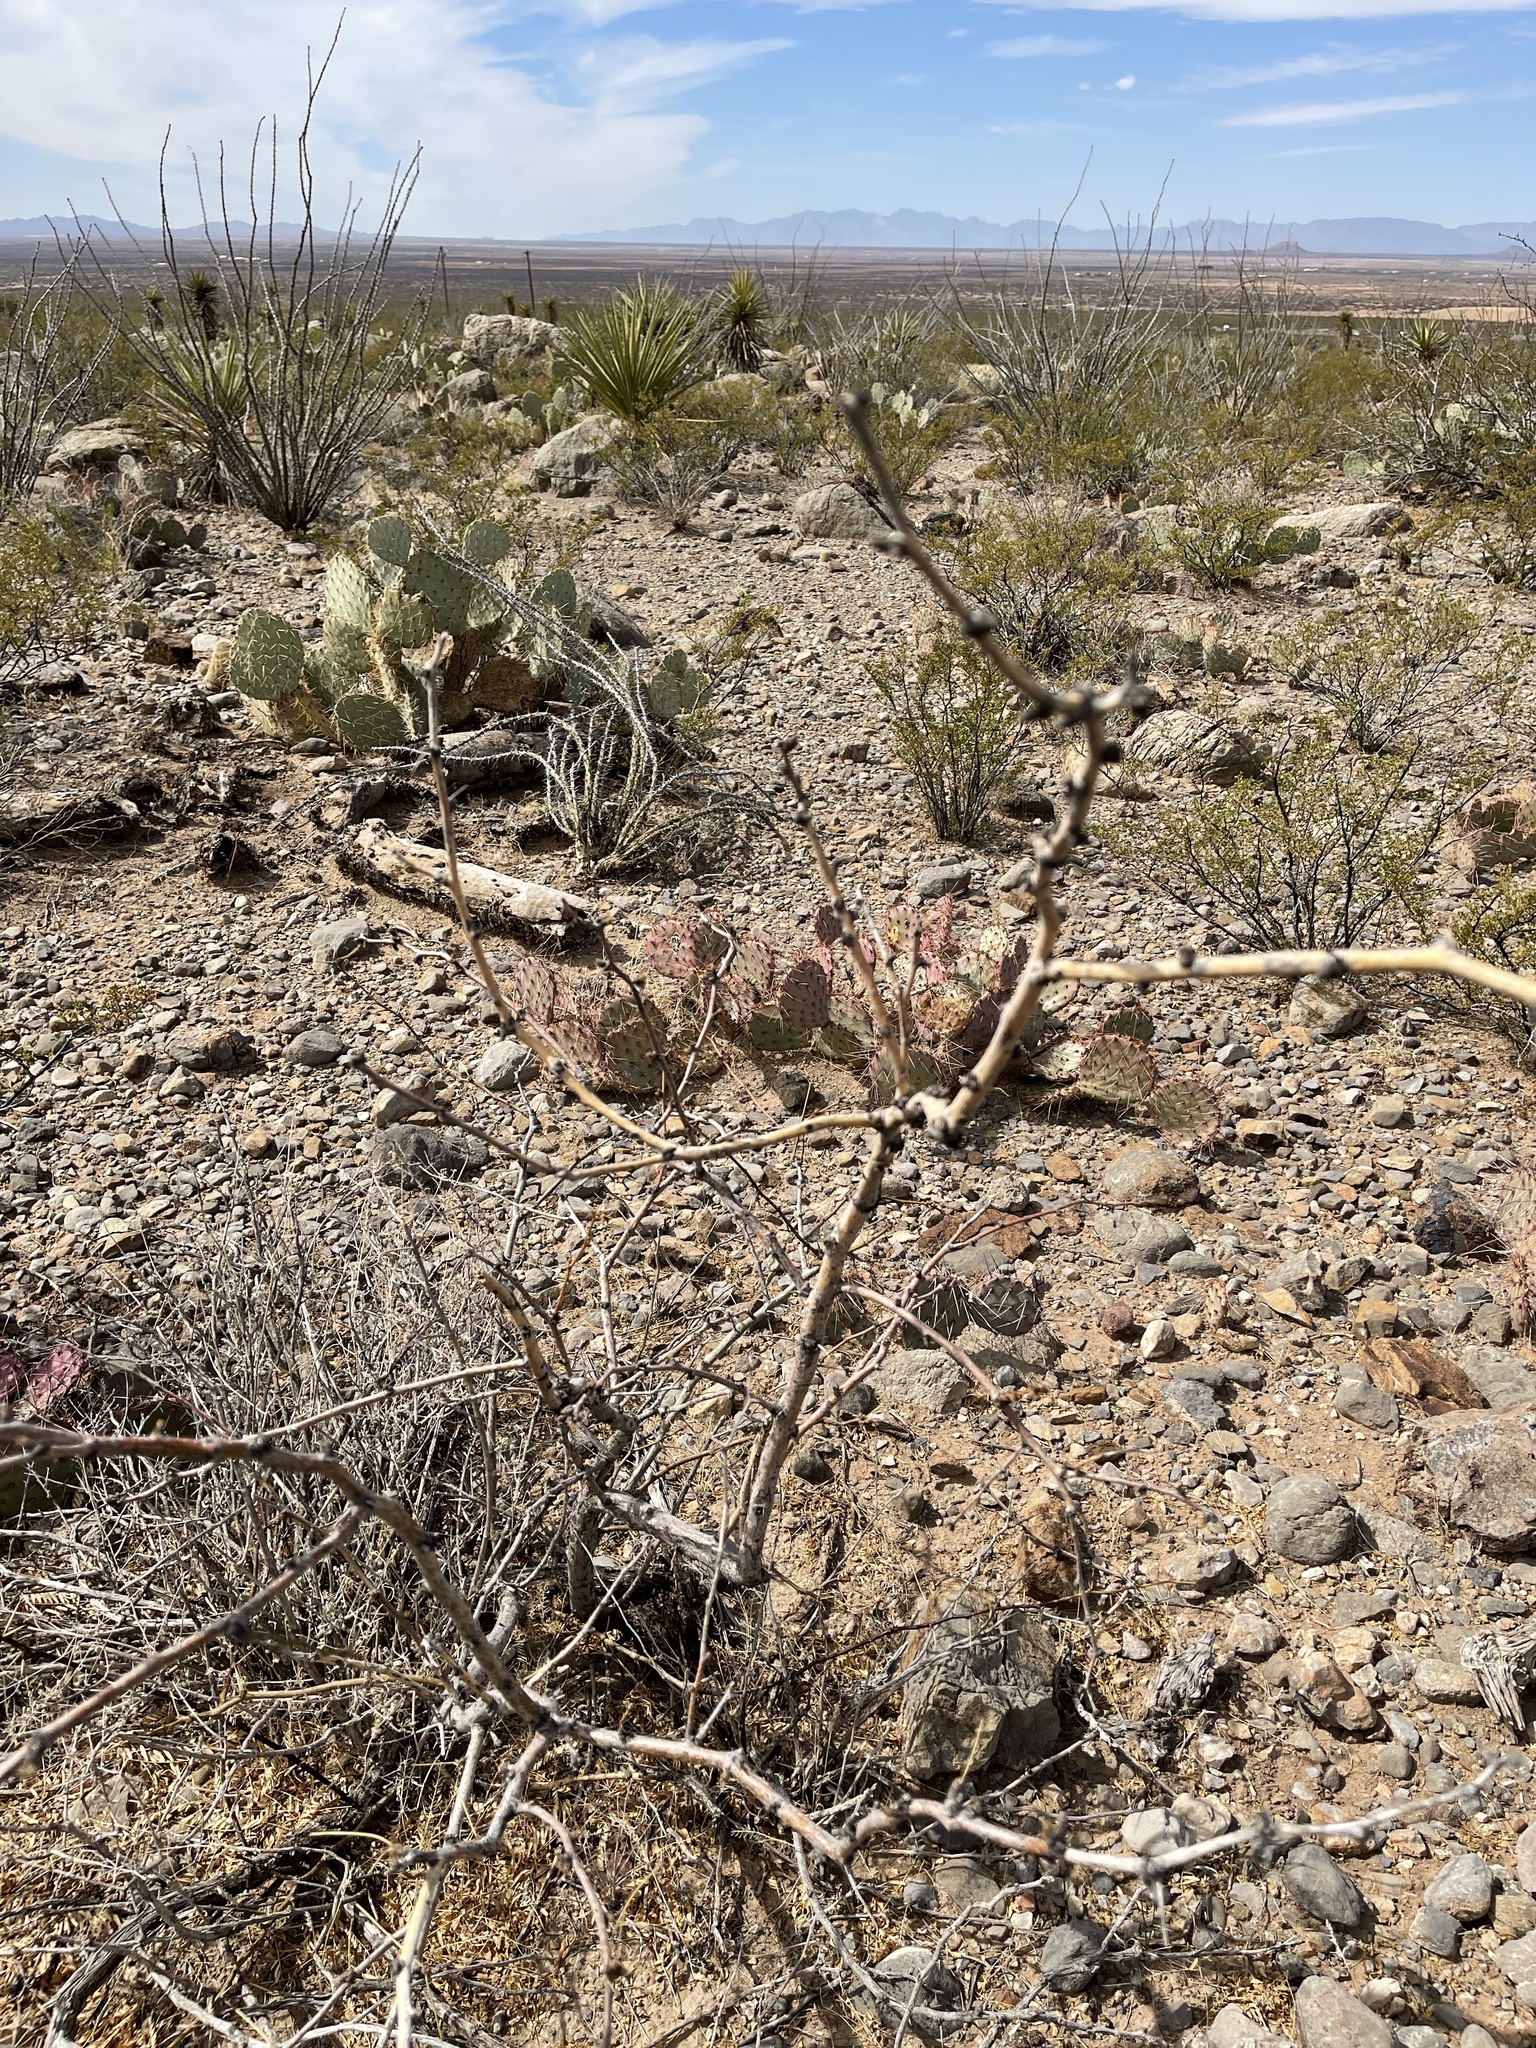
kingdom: Plantae
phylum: Tracheophyta
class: Magnoliopsida
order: Fabales
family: Fabaceae
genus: Prosopis
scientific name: Prosopis glandulosa
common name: Honey mesquite
